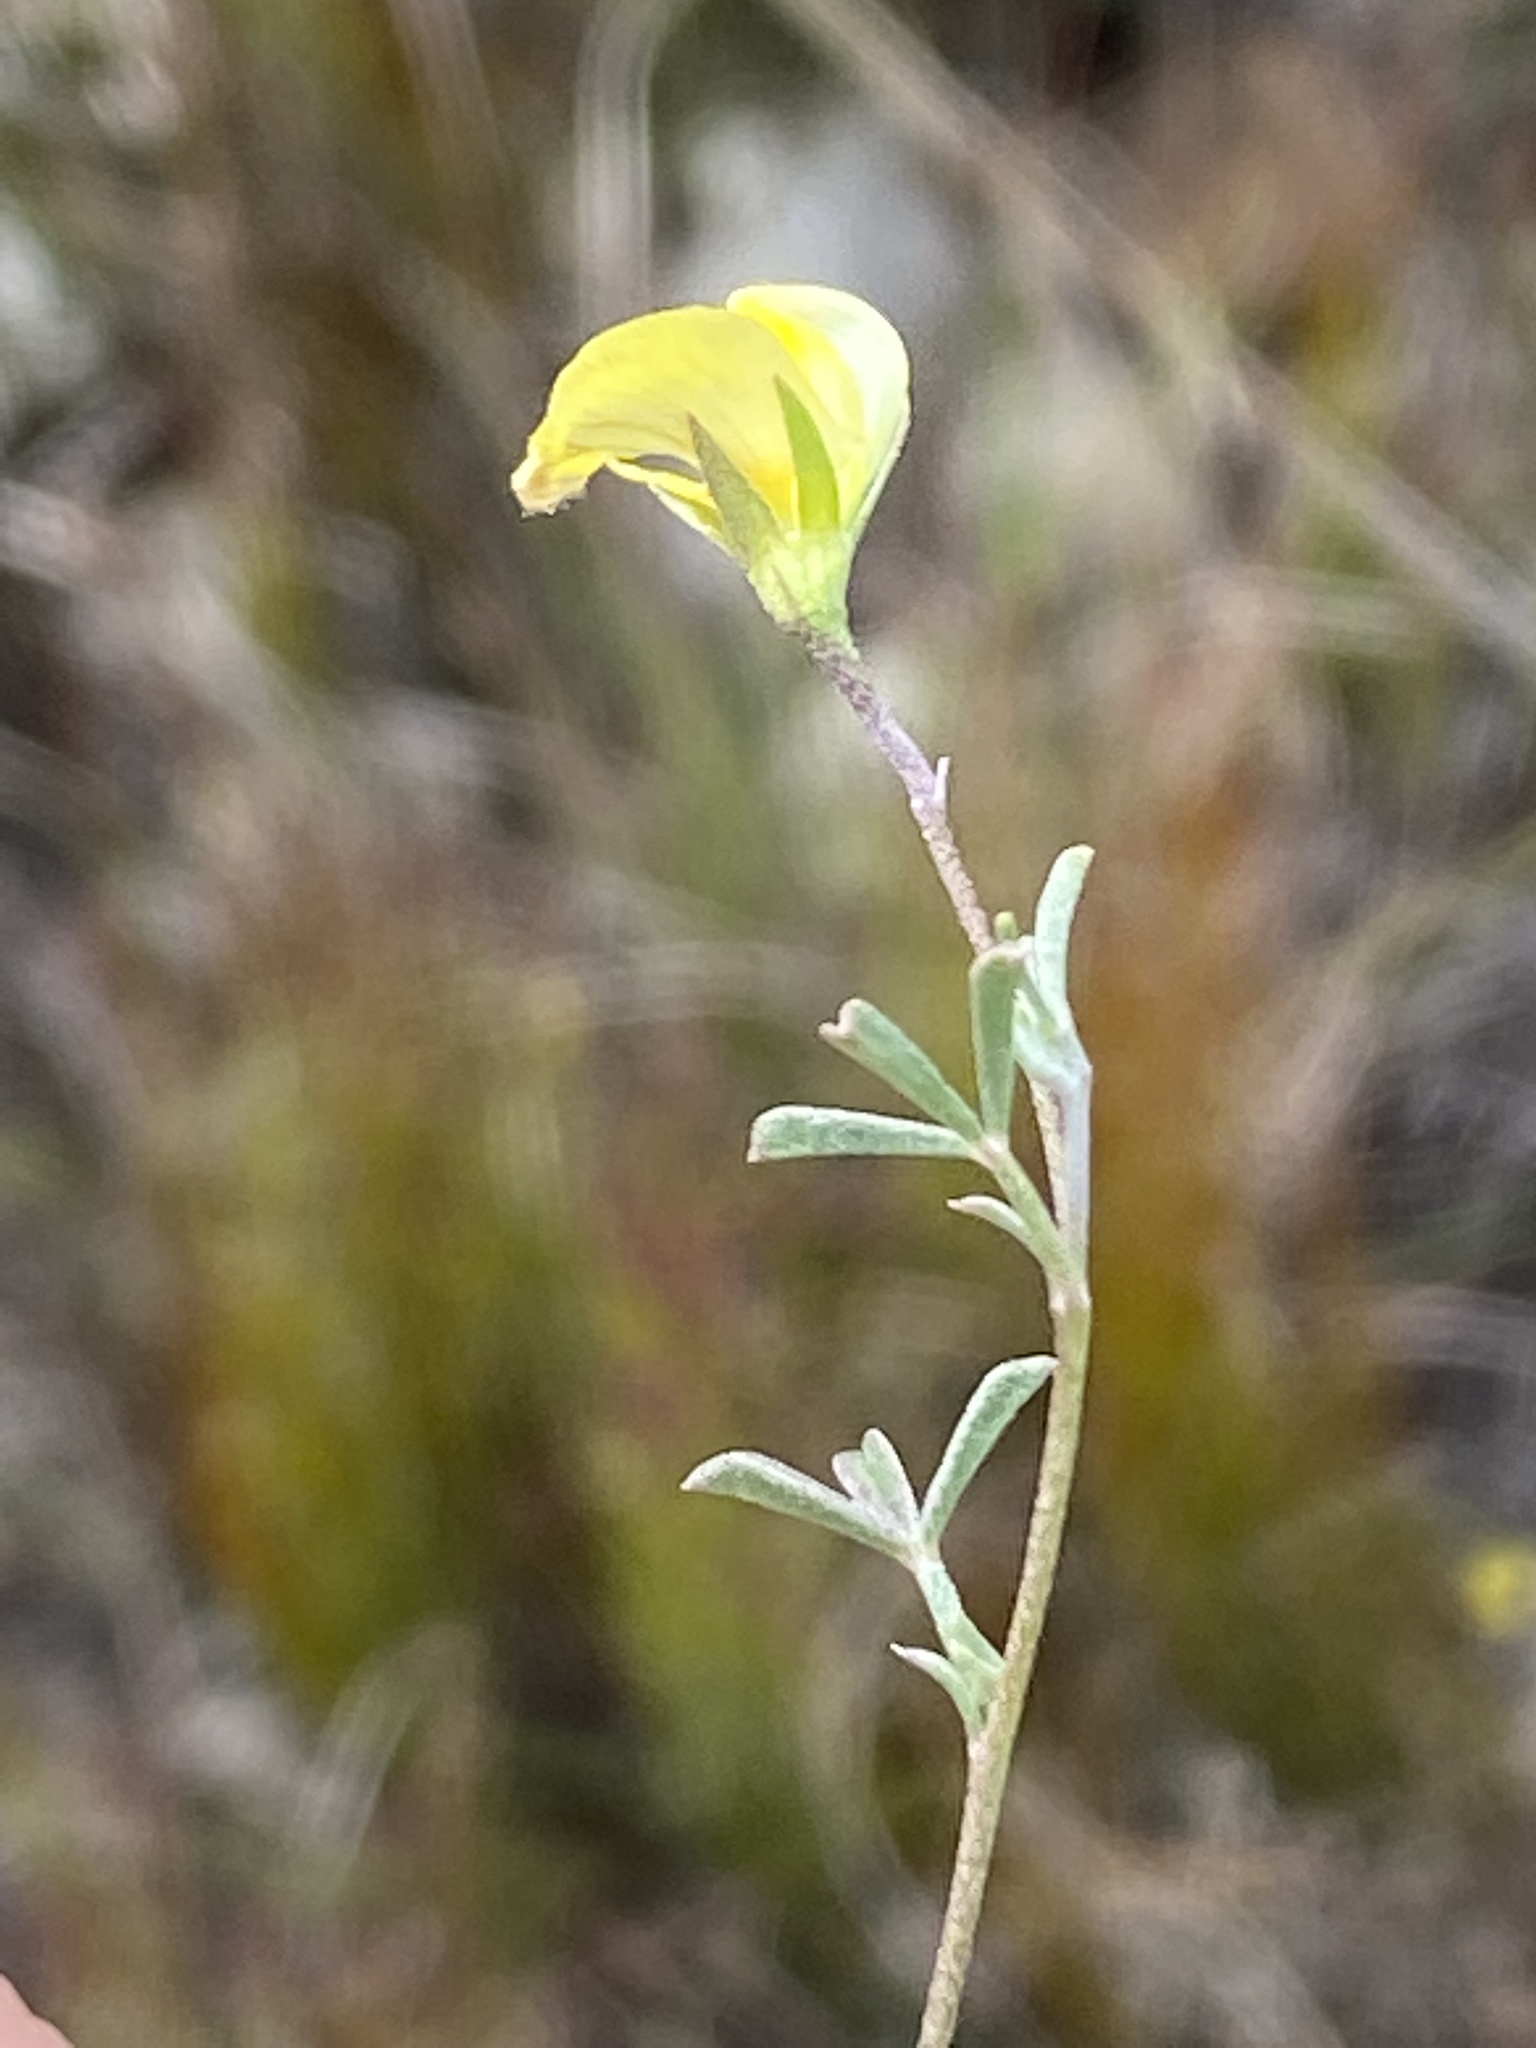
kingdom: Plantae
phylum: Tracheophyta
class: Magnoliopsida
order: Fabales
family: Fabaceae
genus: Lotononis
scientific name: Lotononis tenella
